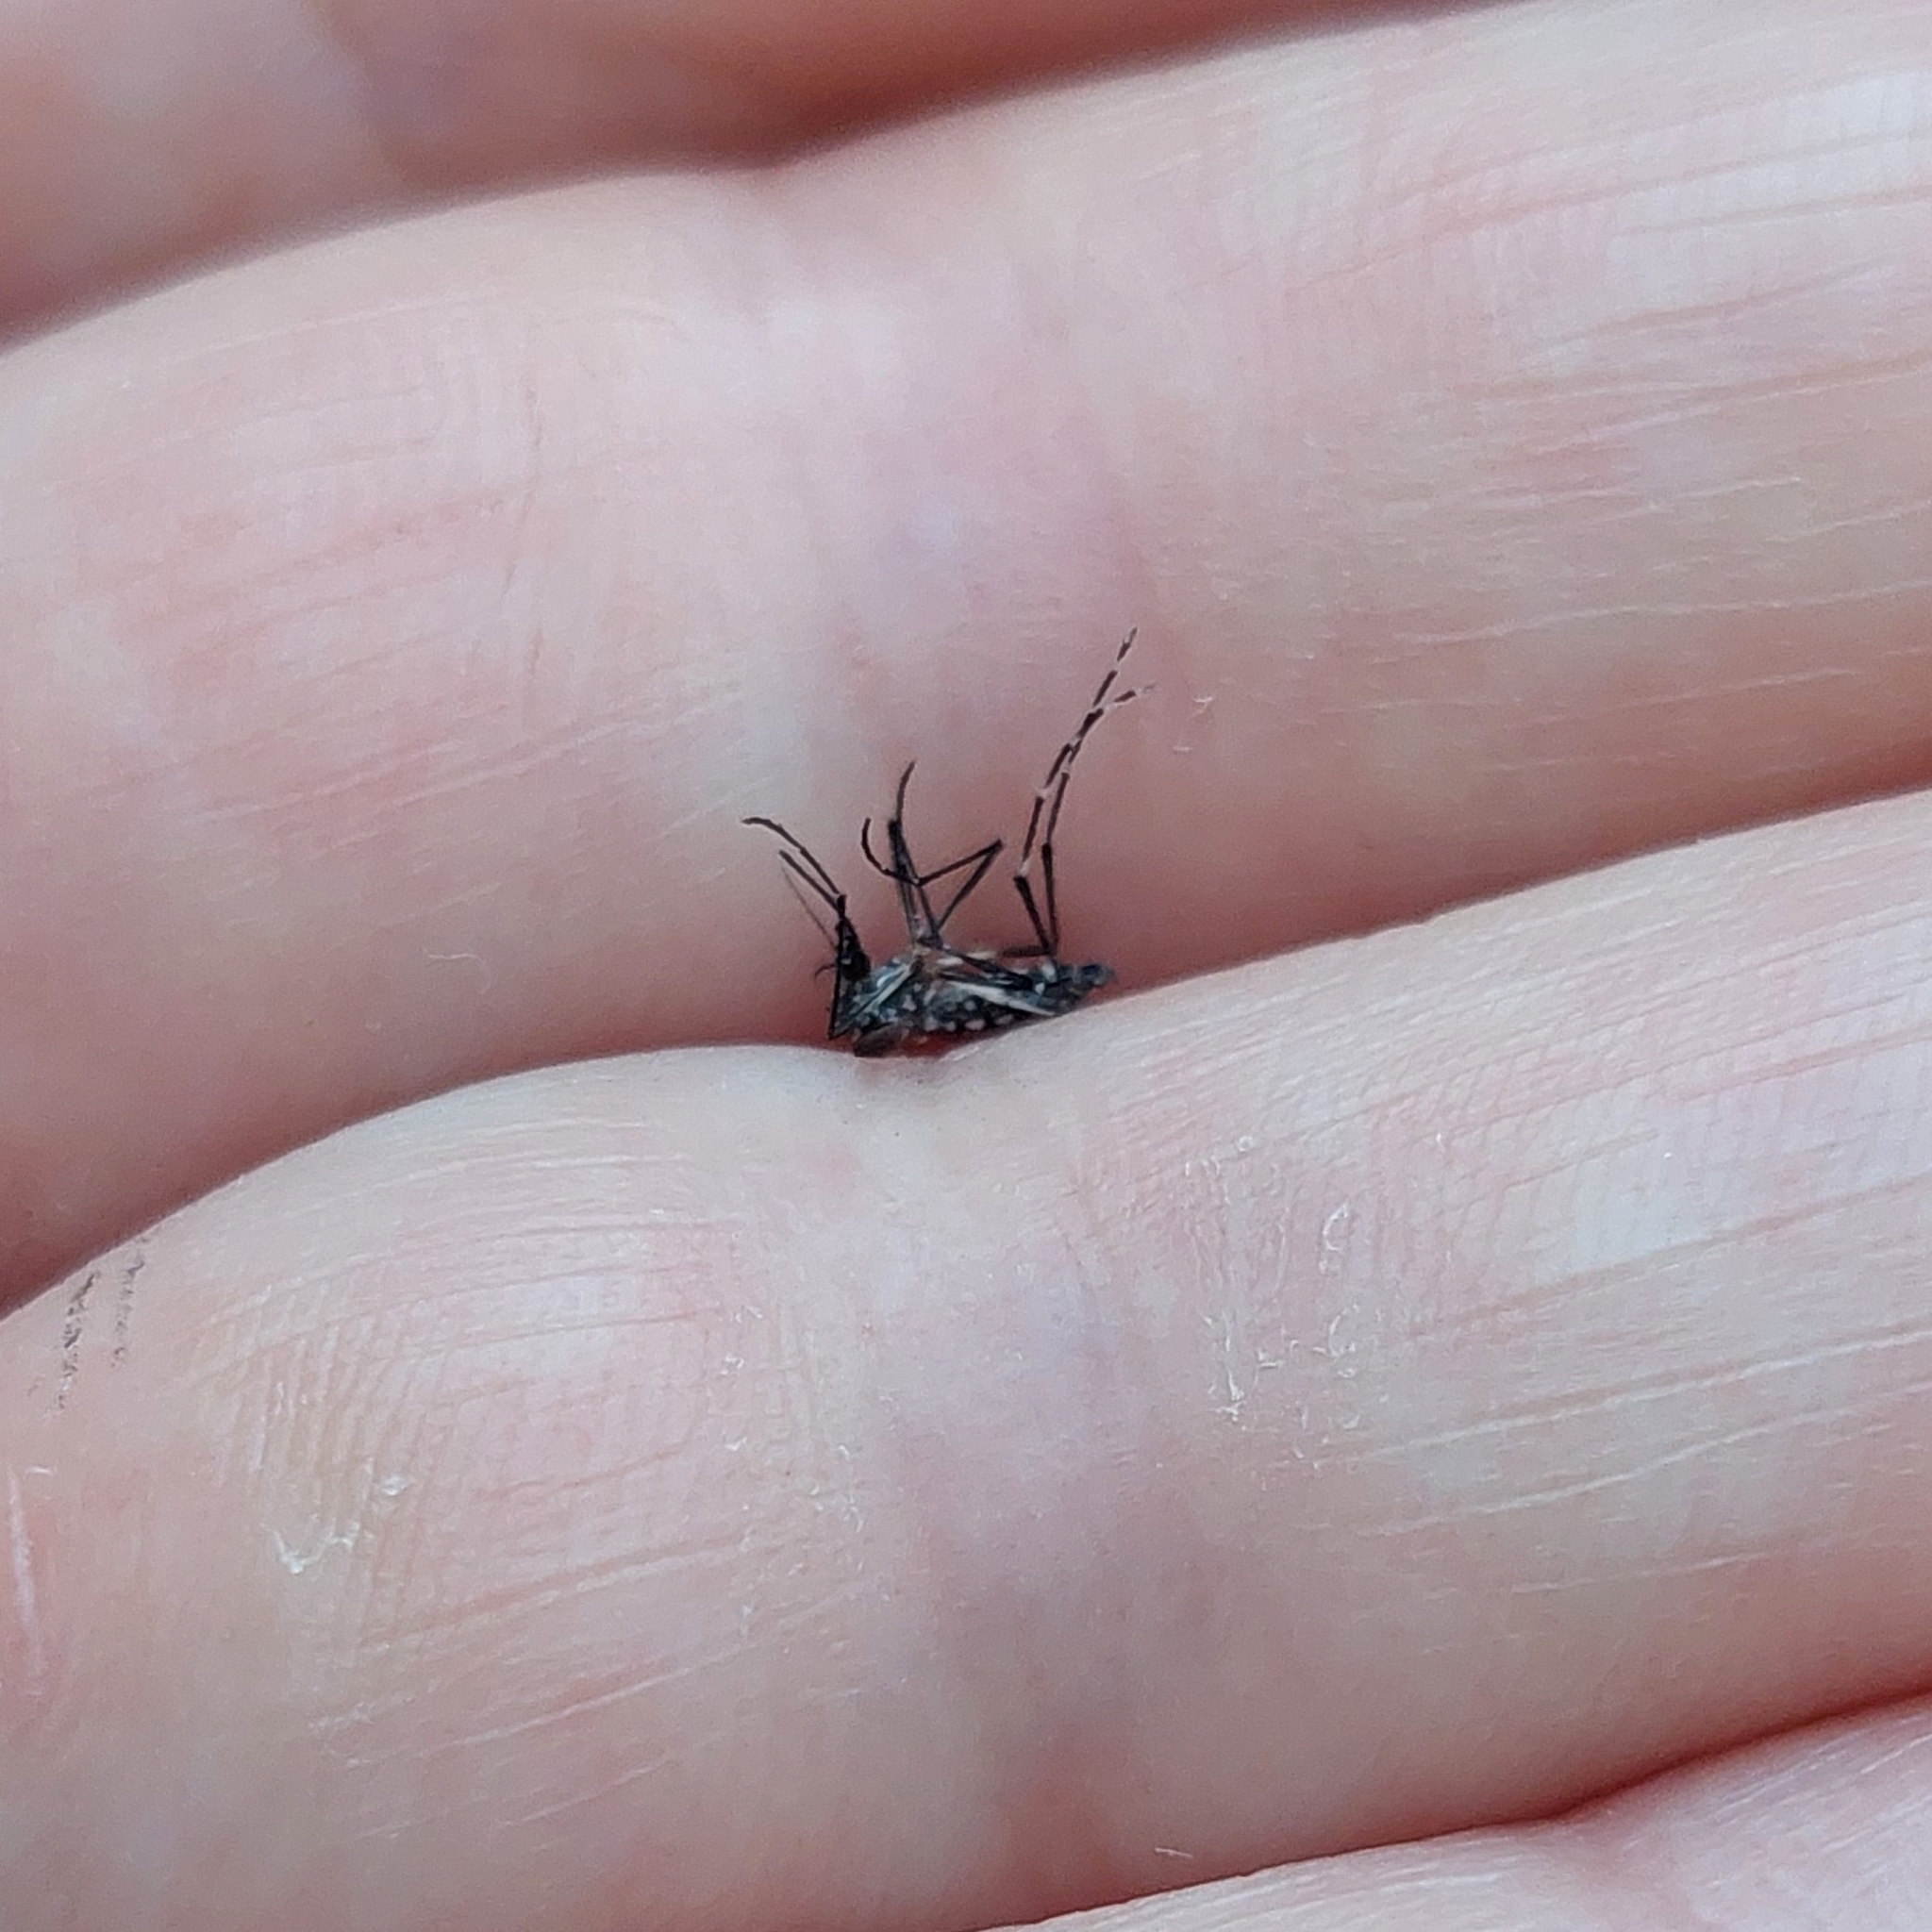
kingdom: Animalia
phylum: Arthropoda
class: Insecta
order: Diptera
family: Culicidae
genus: Aedes
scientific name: Aedes aegypti
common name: Yellow fever mosquito
